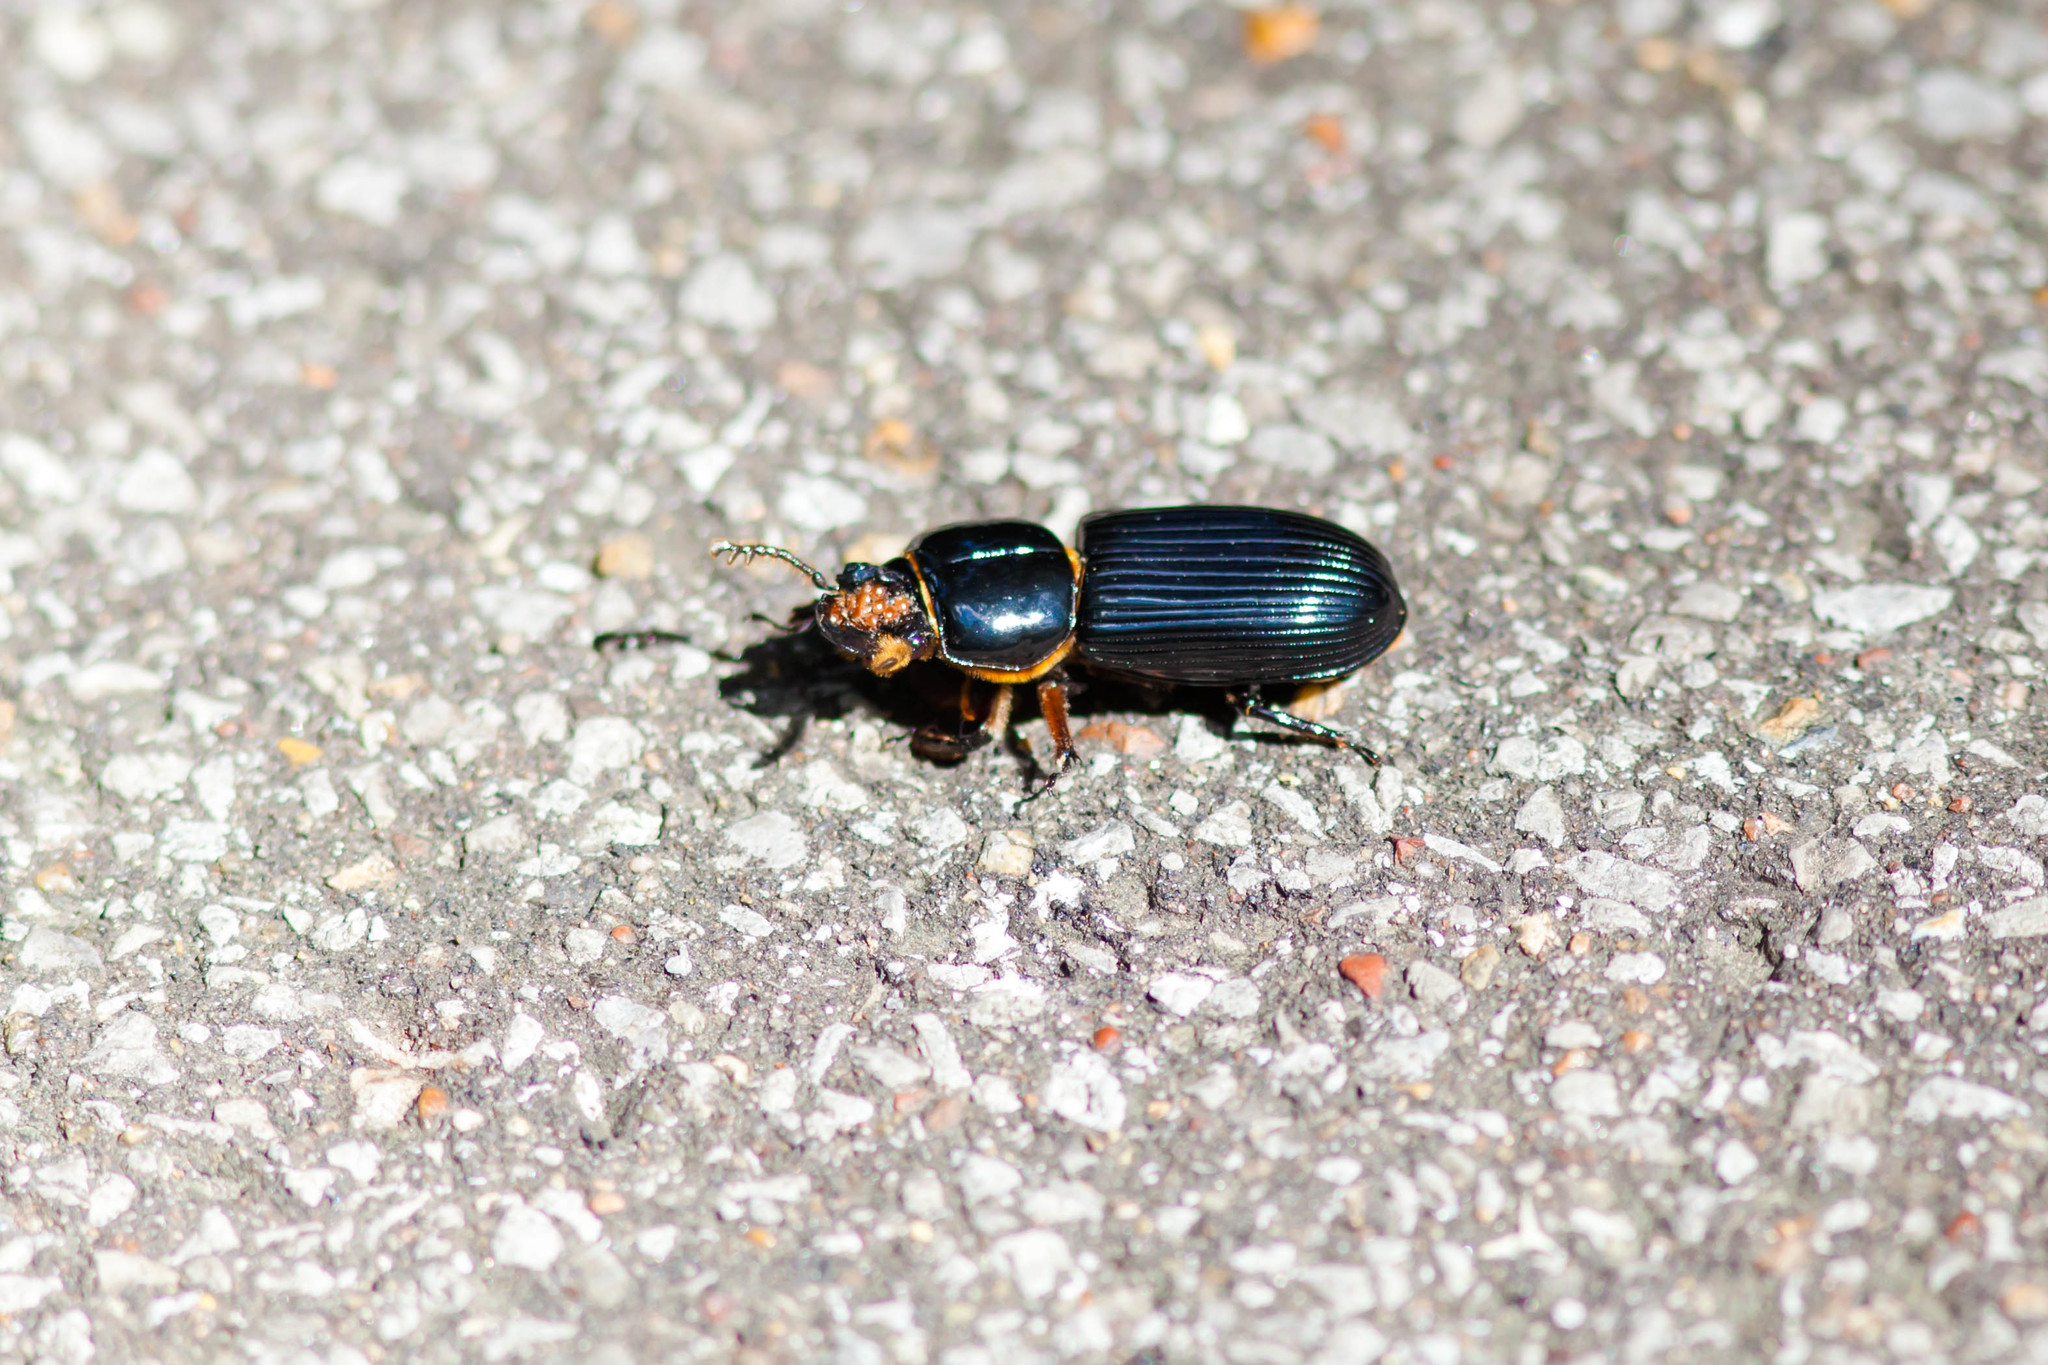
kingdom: Animalia
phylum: Arthropoda
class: Insecta
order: Coleoptera
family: Passalidae
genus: Odontotaenius
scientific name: Odontotaenius disjunctus
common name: Patent leather beetle
